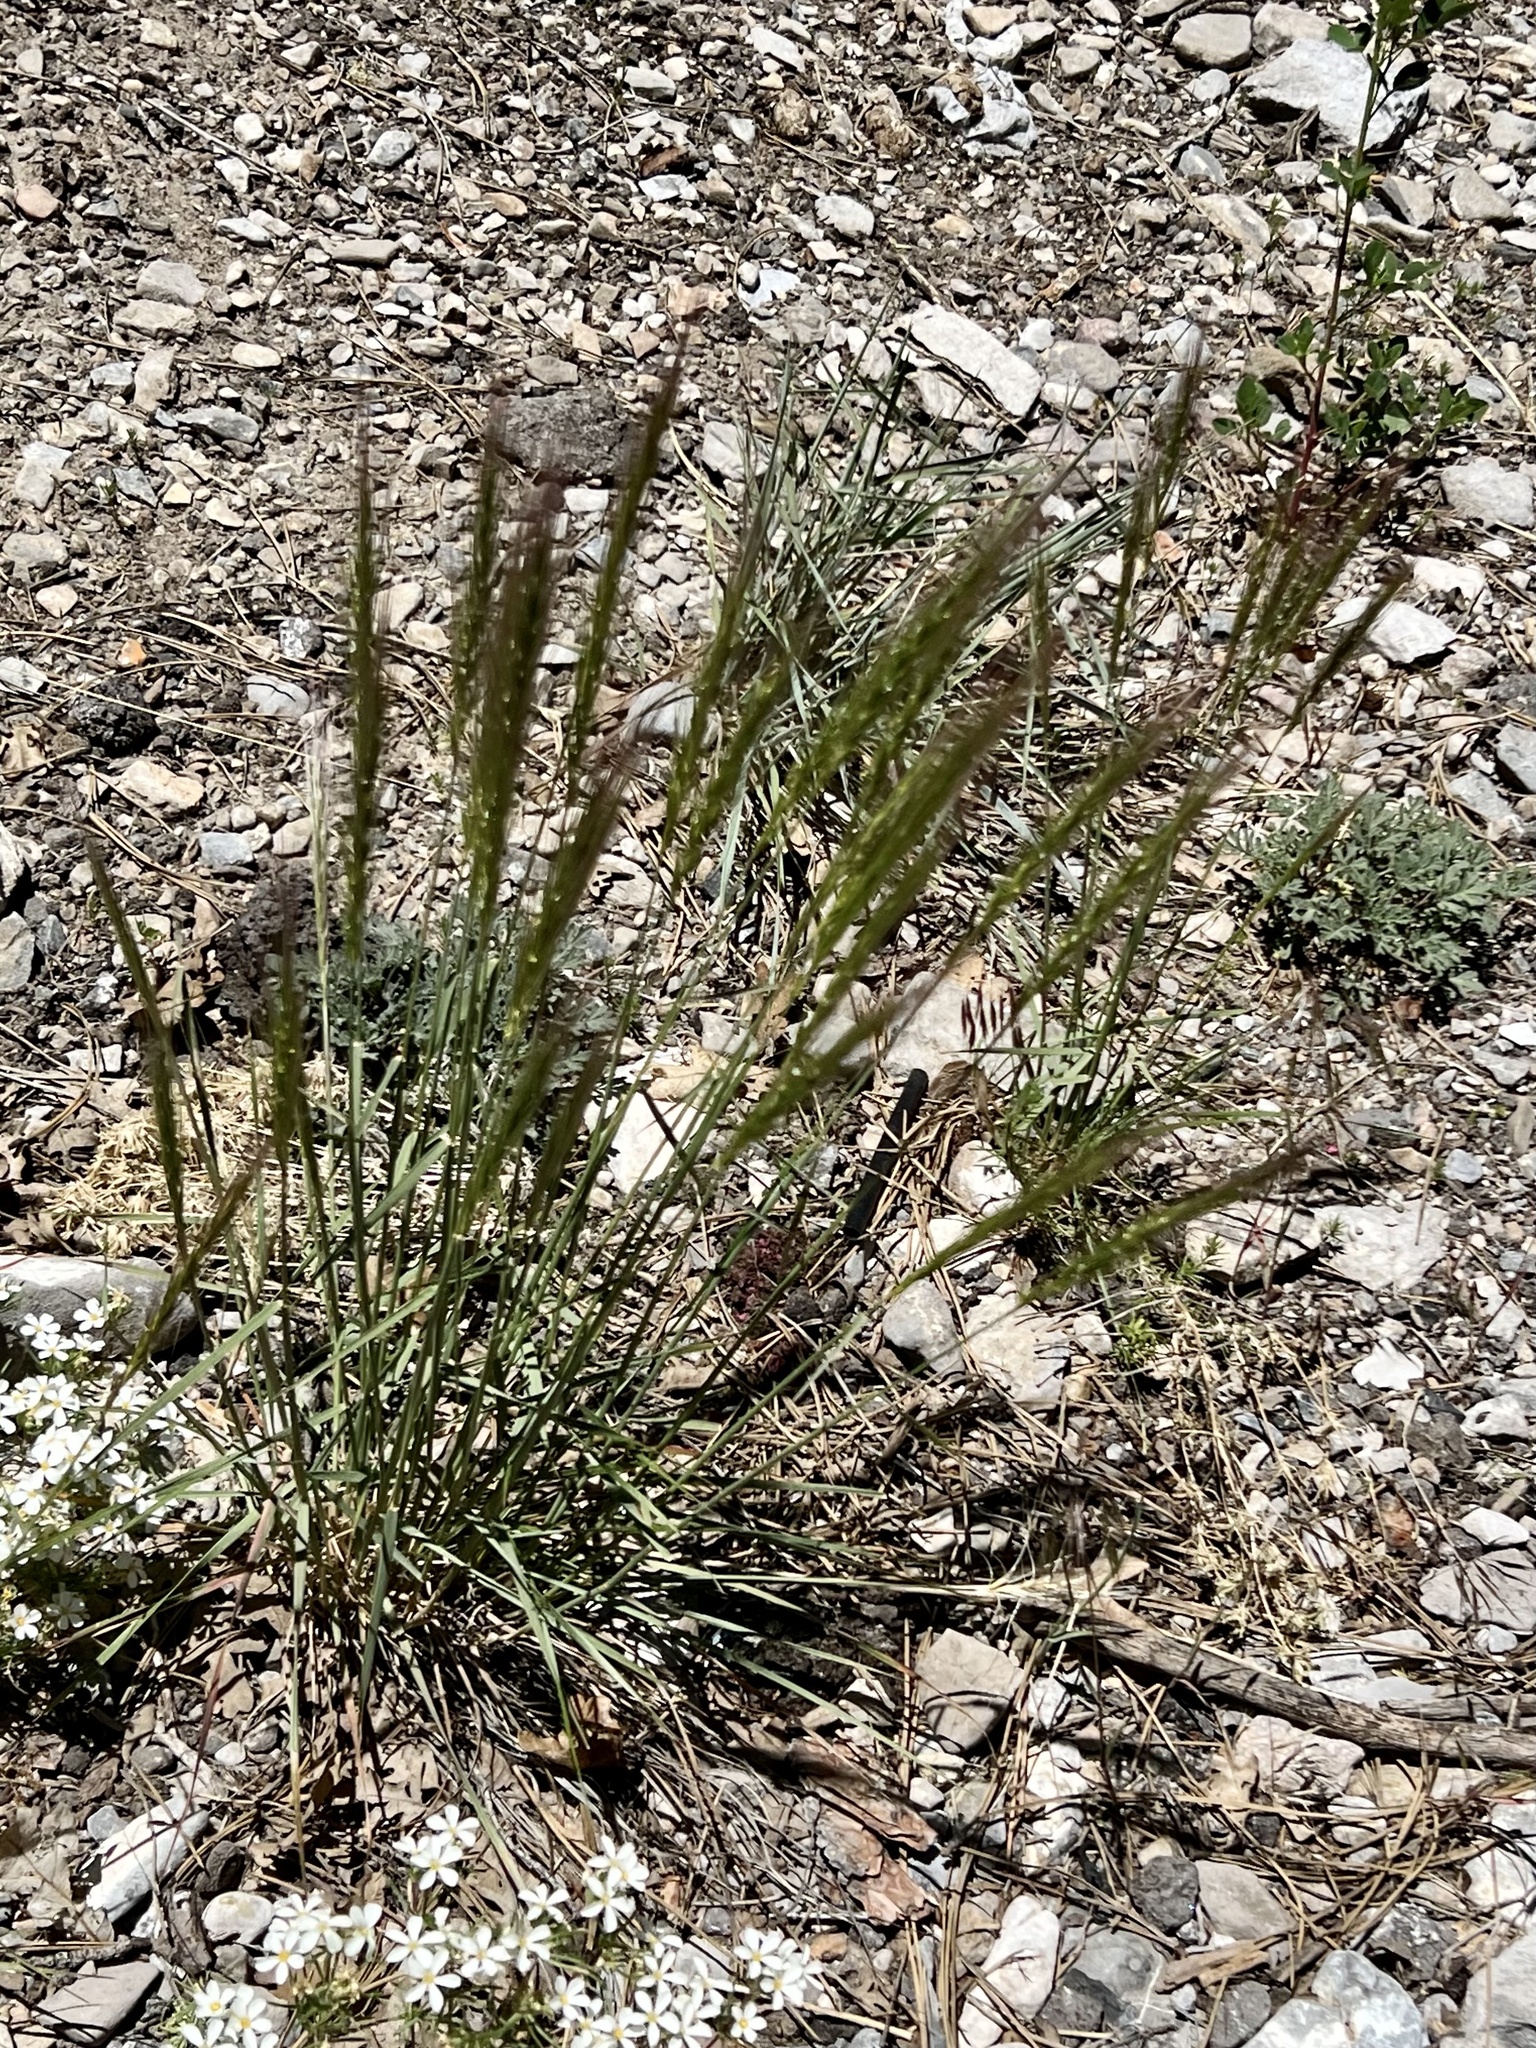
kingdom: Plantae
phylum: Tracheophyta
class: Liliopsida
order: Poales
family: Poaceae
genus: Elymus
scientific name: Elymus elymoides
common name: Bottlebrush squirreltail
